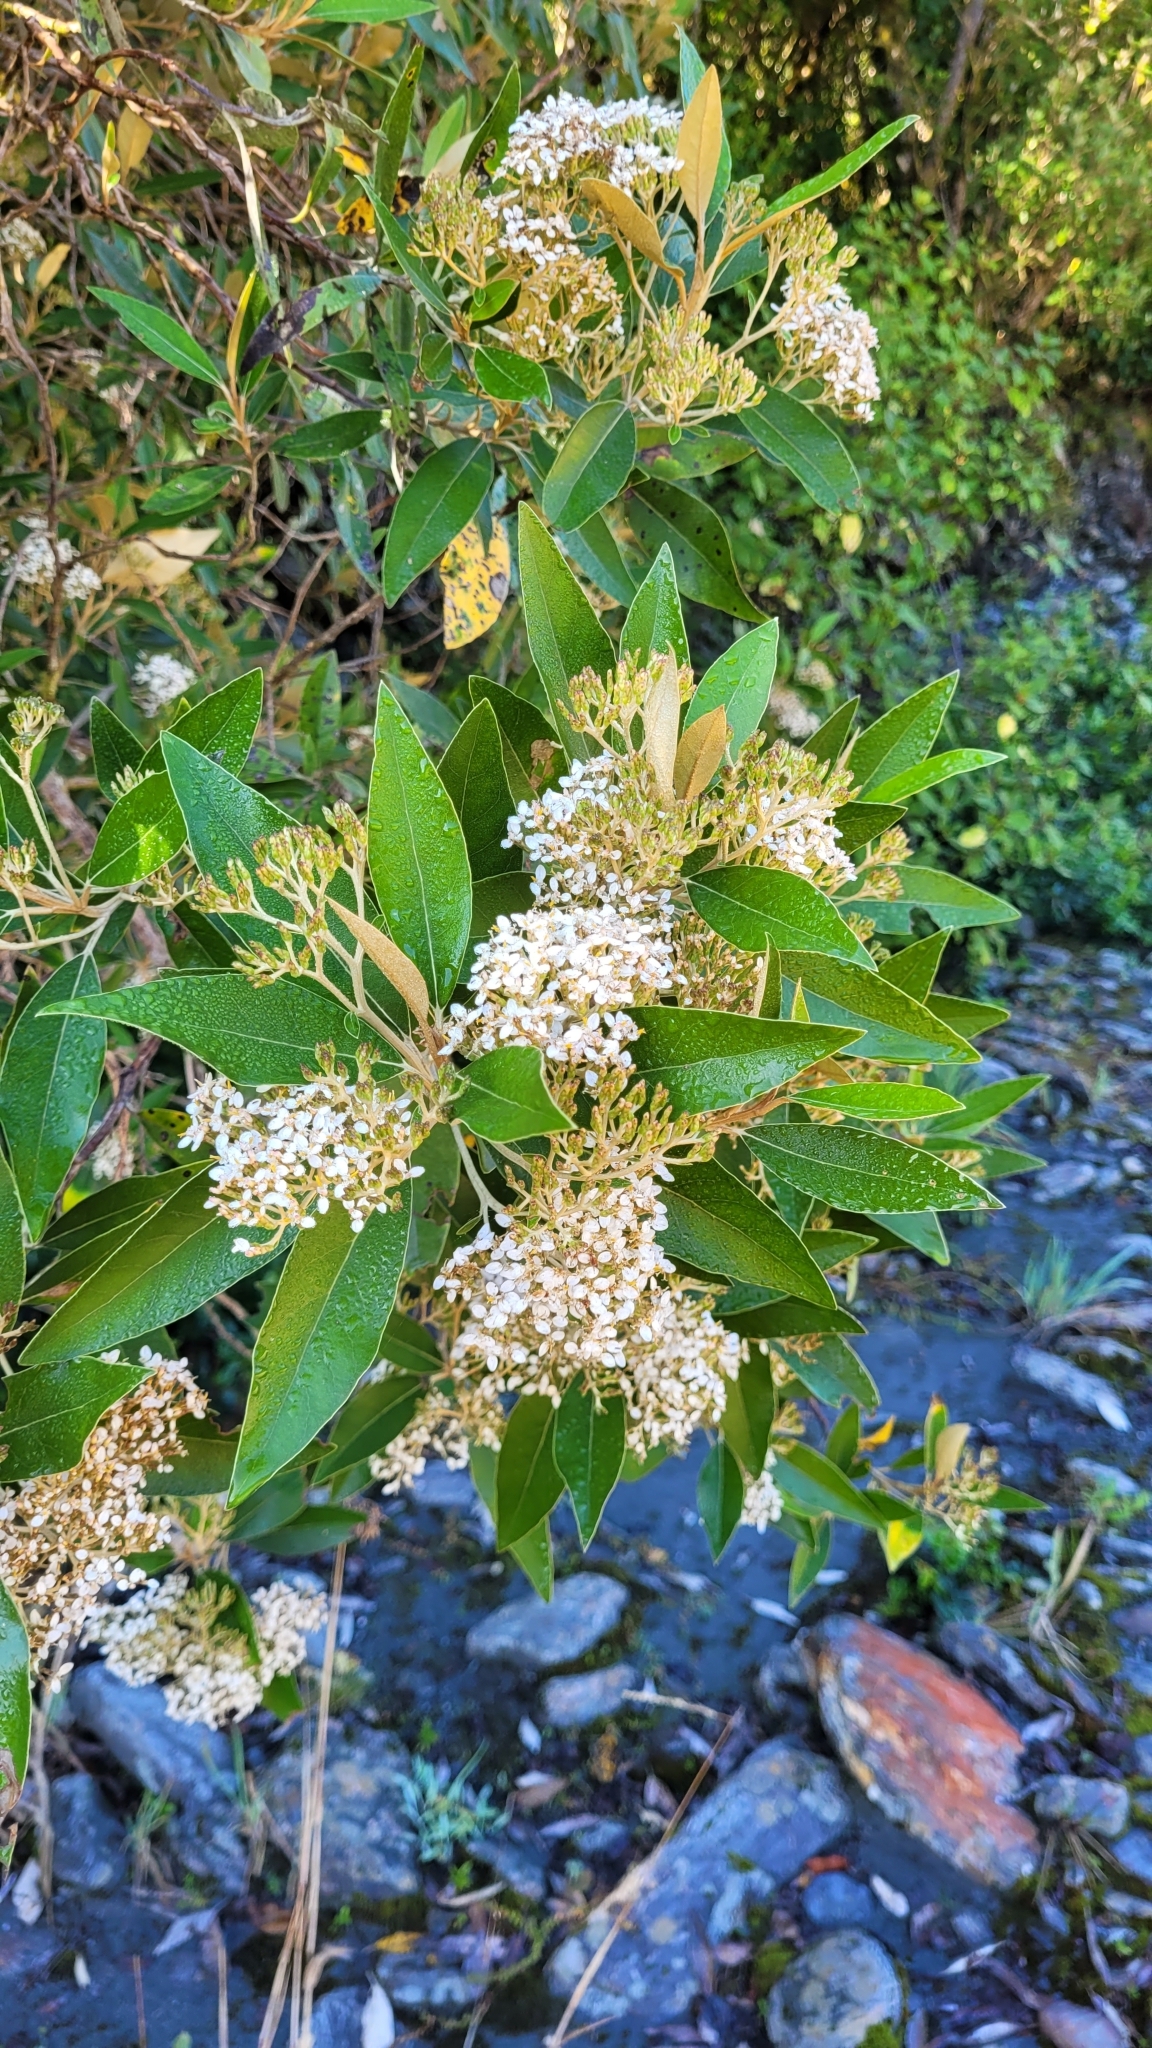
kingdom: Plantae
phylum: Tracheophyta
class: Magnoliopsida
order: Asterales
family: Asteraceae
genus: Olearia
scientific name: Olearia avicenniifolia
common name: Mangrove-leaf daisybush
